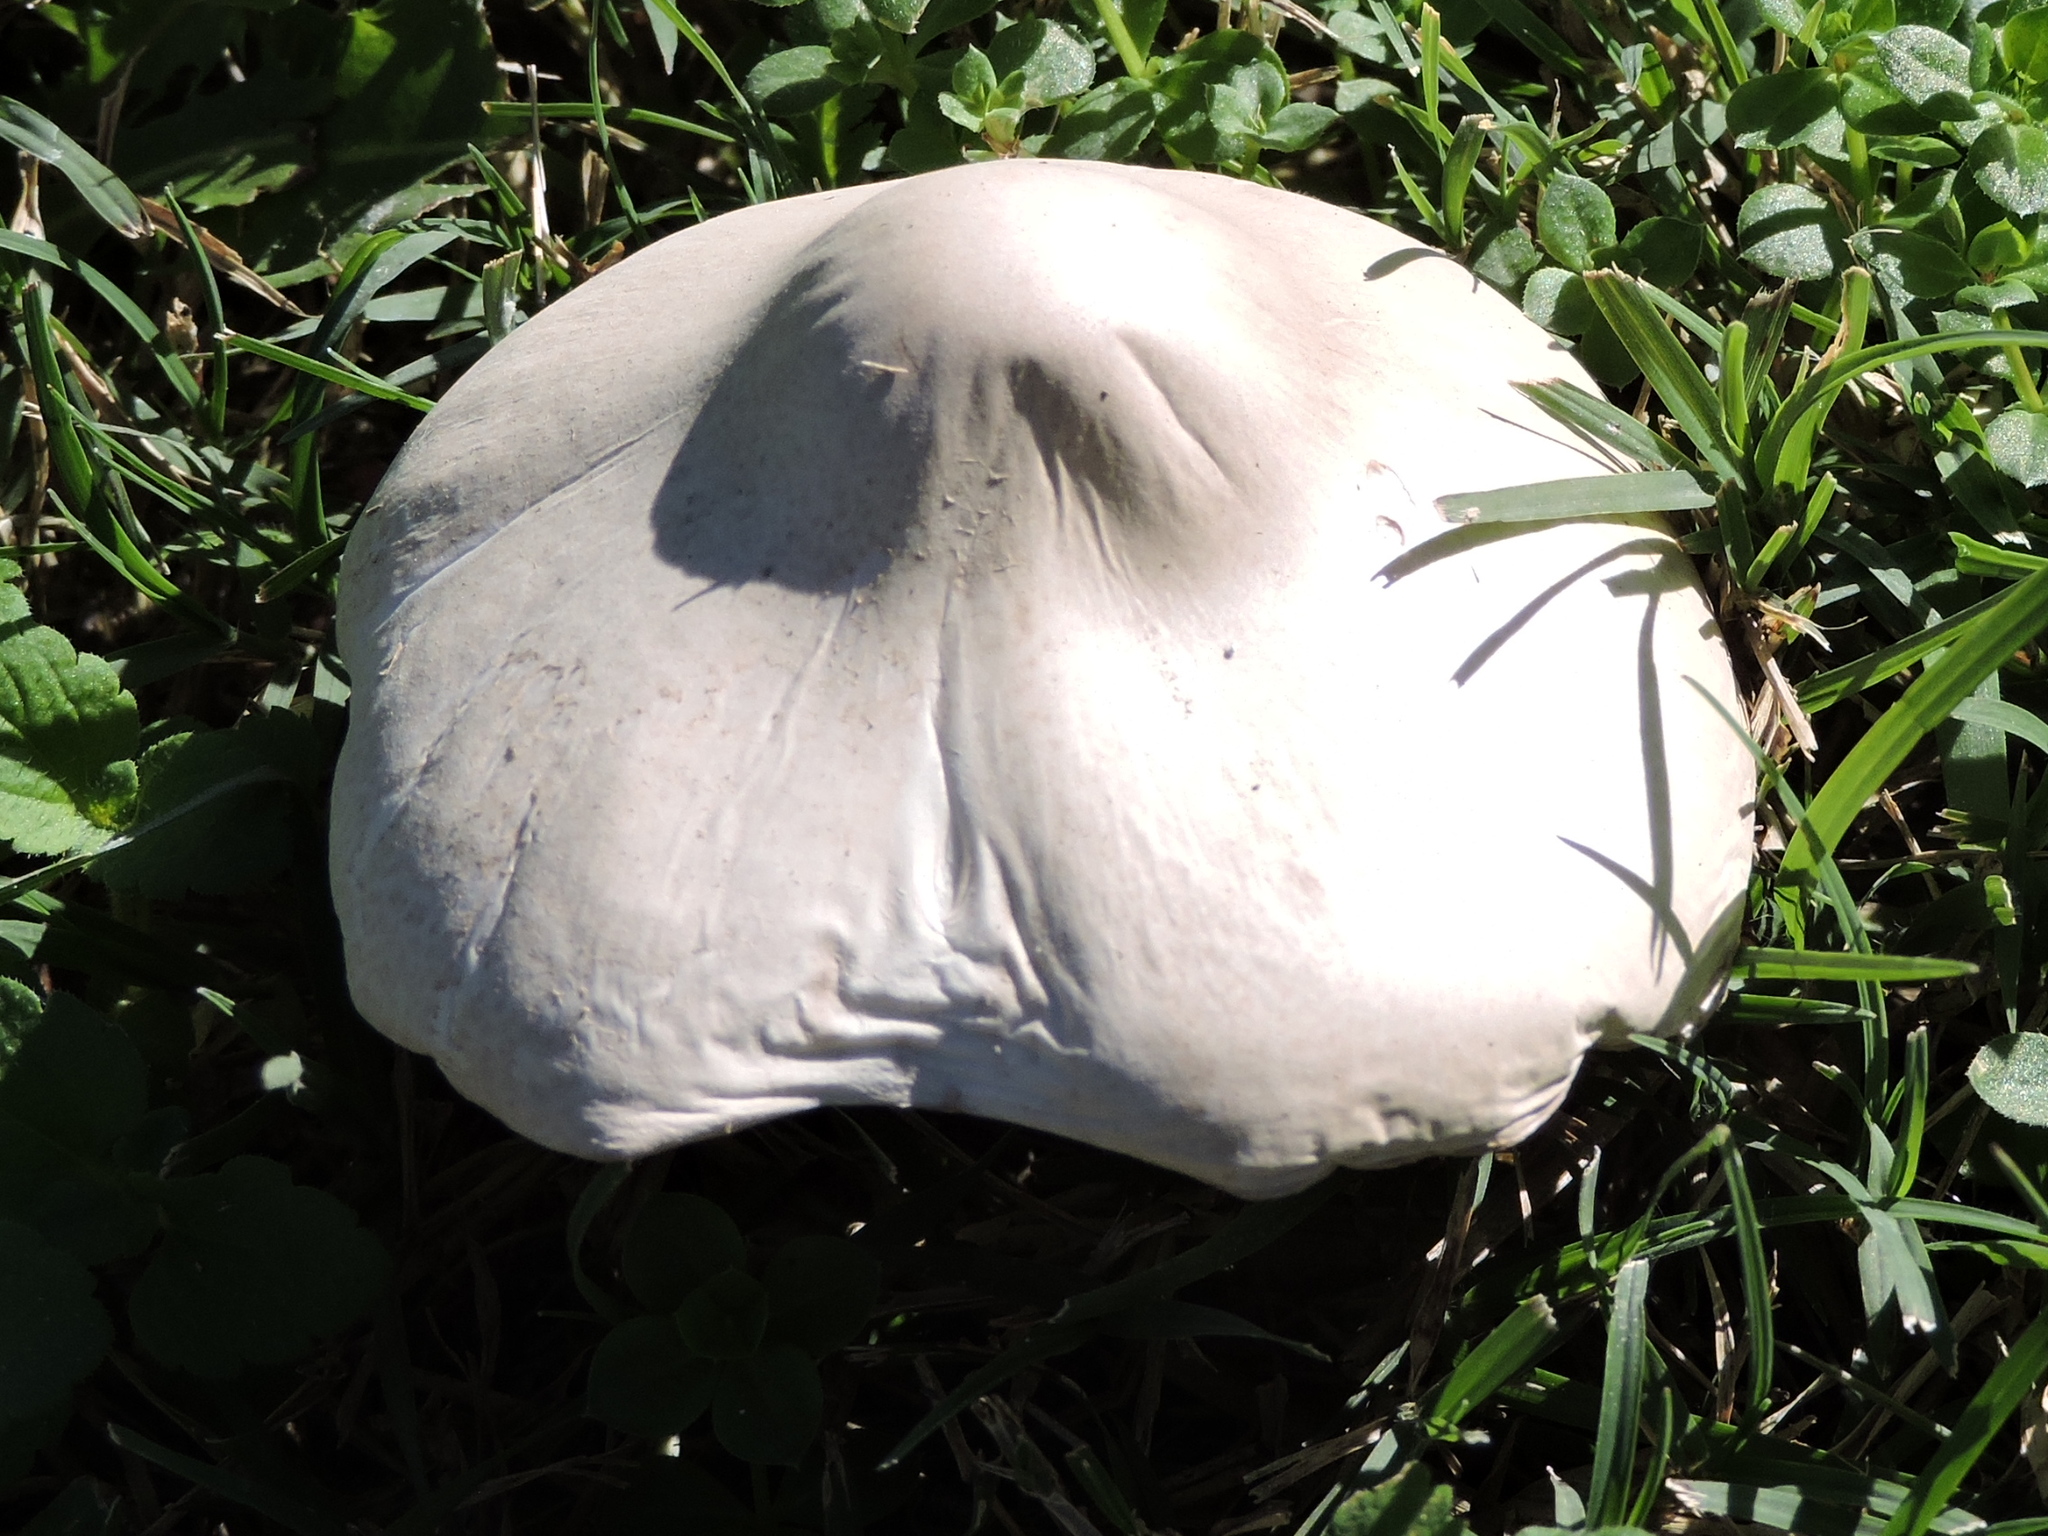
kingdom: Fungi
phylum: Basidiomycota
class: Agaricomycetes
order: Agaricales
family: Agaricaceae
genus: Leucoagaricus
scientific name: Leucoagaricus leucothites
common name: White dapperling
